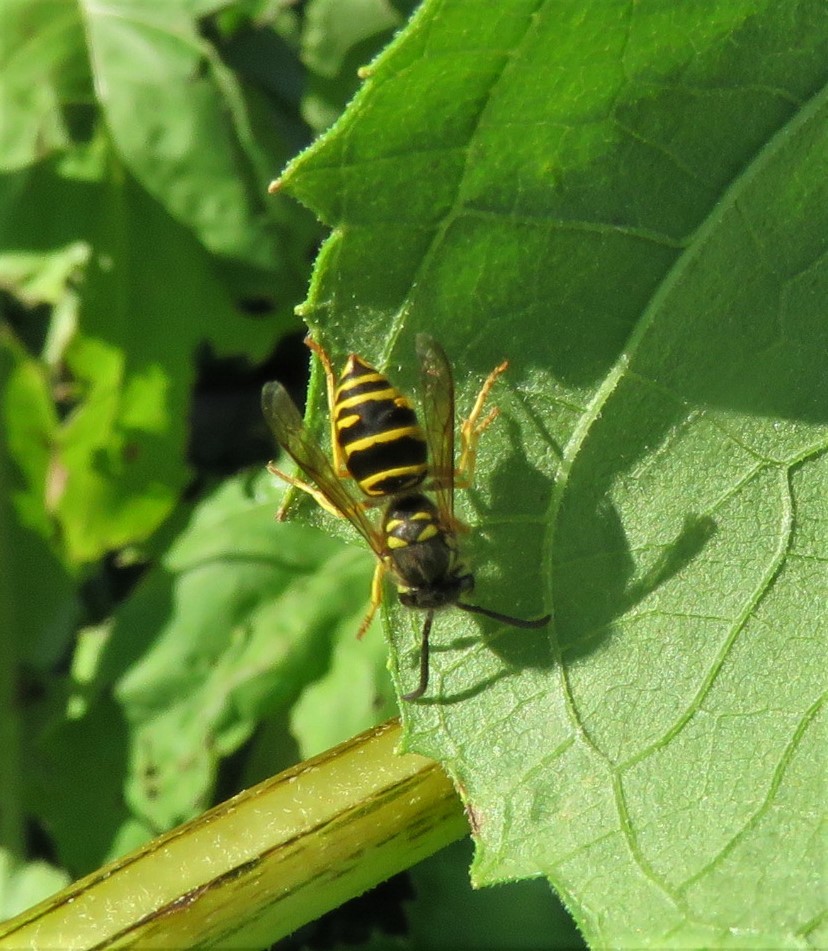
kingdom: Animalia
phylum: Arthropoda
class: Insecta
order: Hymenoptera
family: Vespidae
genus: Vespula
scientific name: Vespula maculifrons
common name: Eastern yellowjacket
